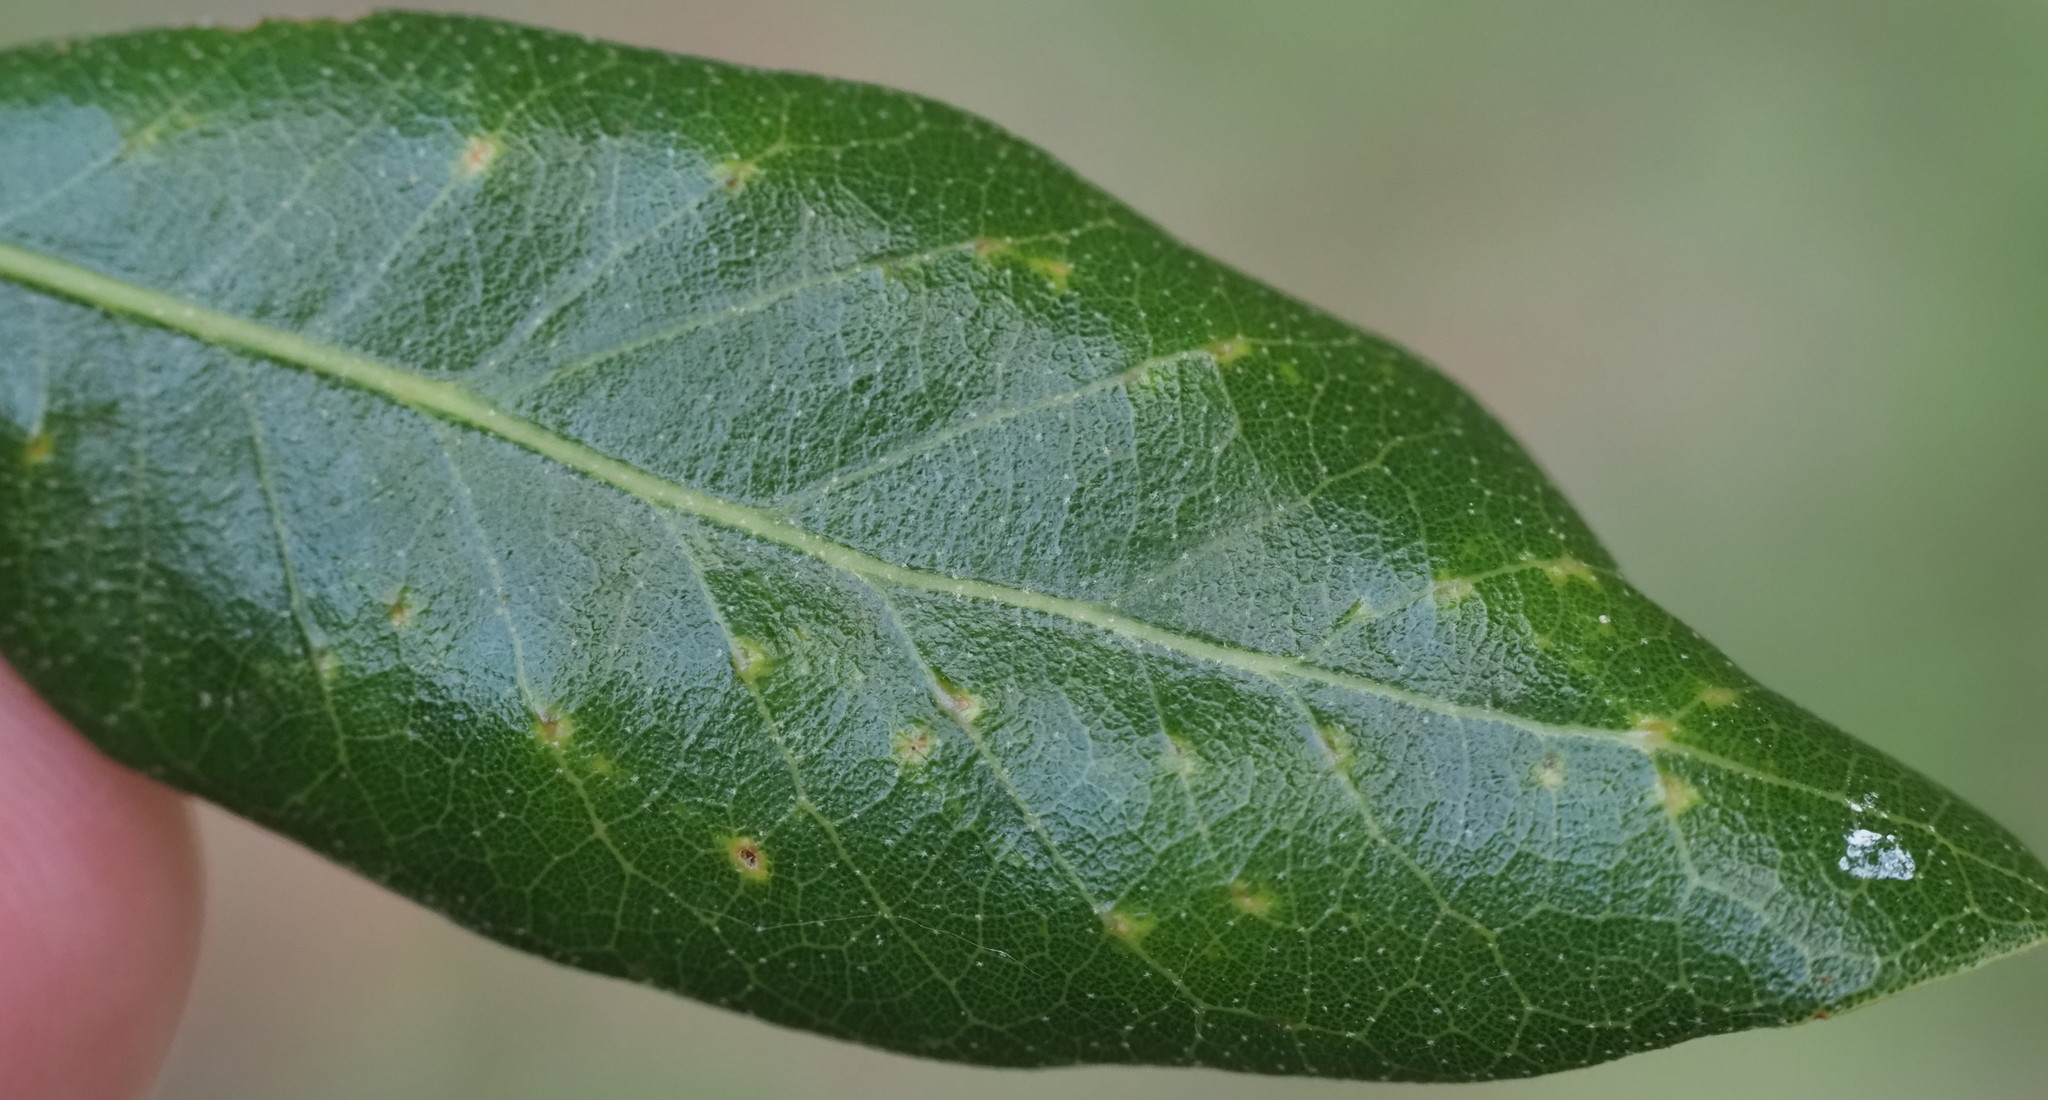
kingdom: Animalia
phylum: Arthropoda
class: Insecta
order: Hymenoptera
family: Cynipidae
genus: Belonocnema
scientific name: Belonocnema kinseyi
